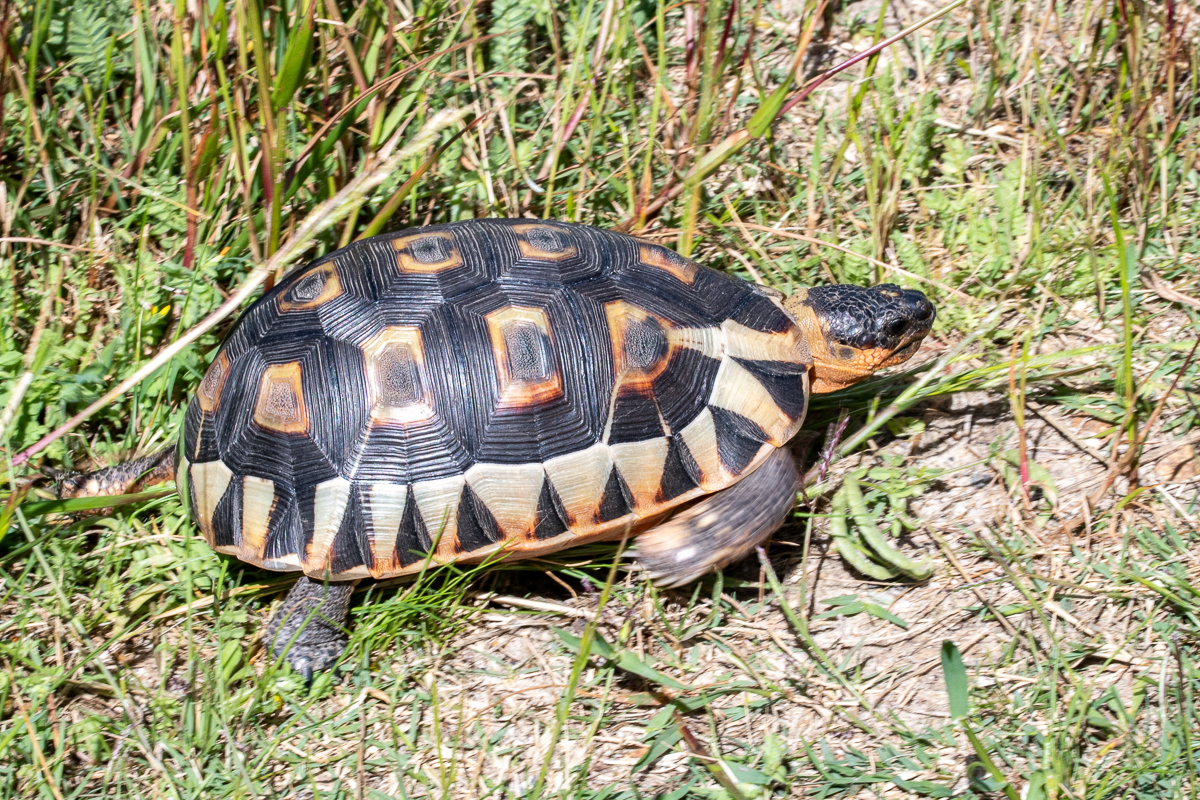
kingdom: Animalia
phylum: Chordata
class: Testudines
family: Testudinidae
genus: Chersina
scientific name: Chersina angulata
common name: South african bowsprit tortoise
